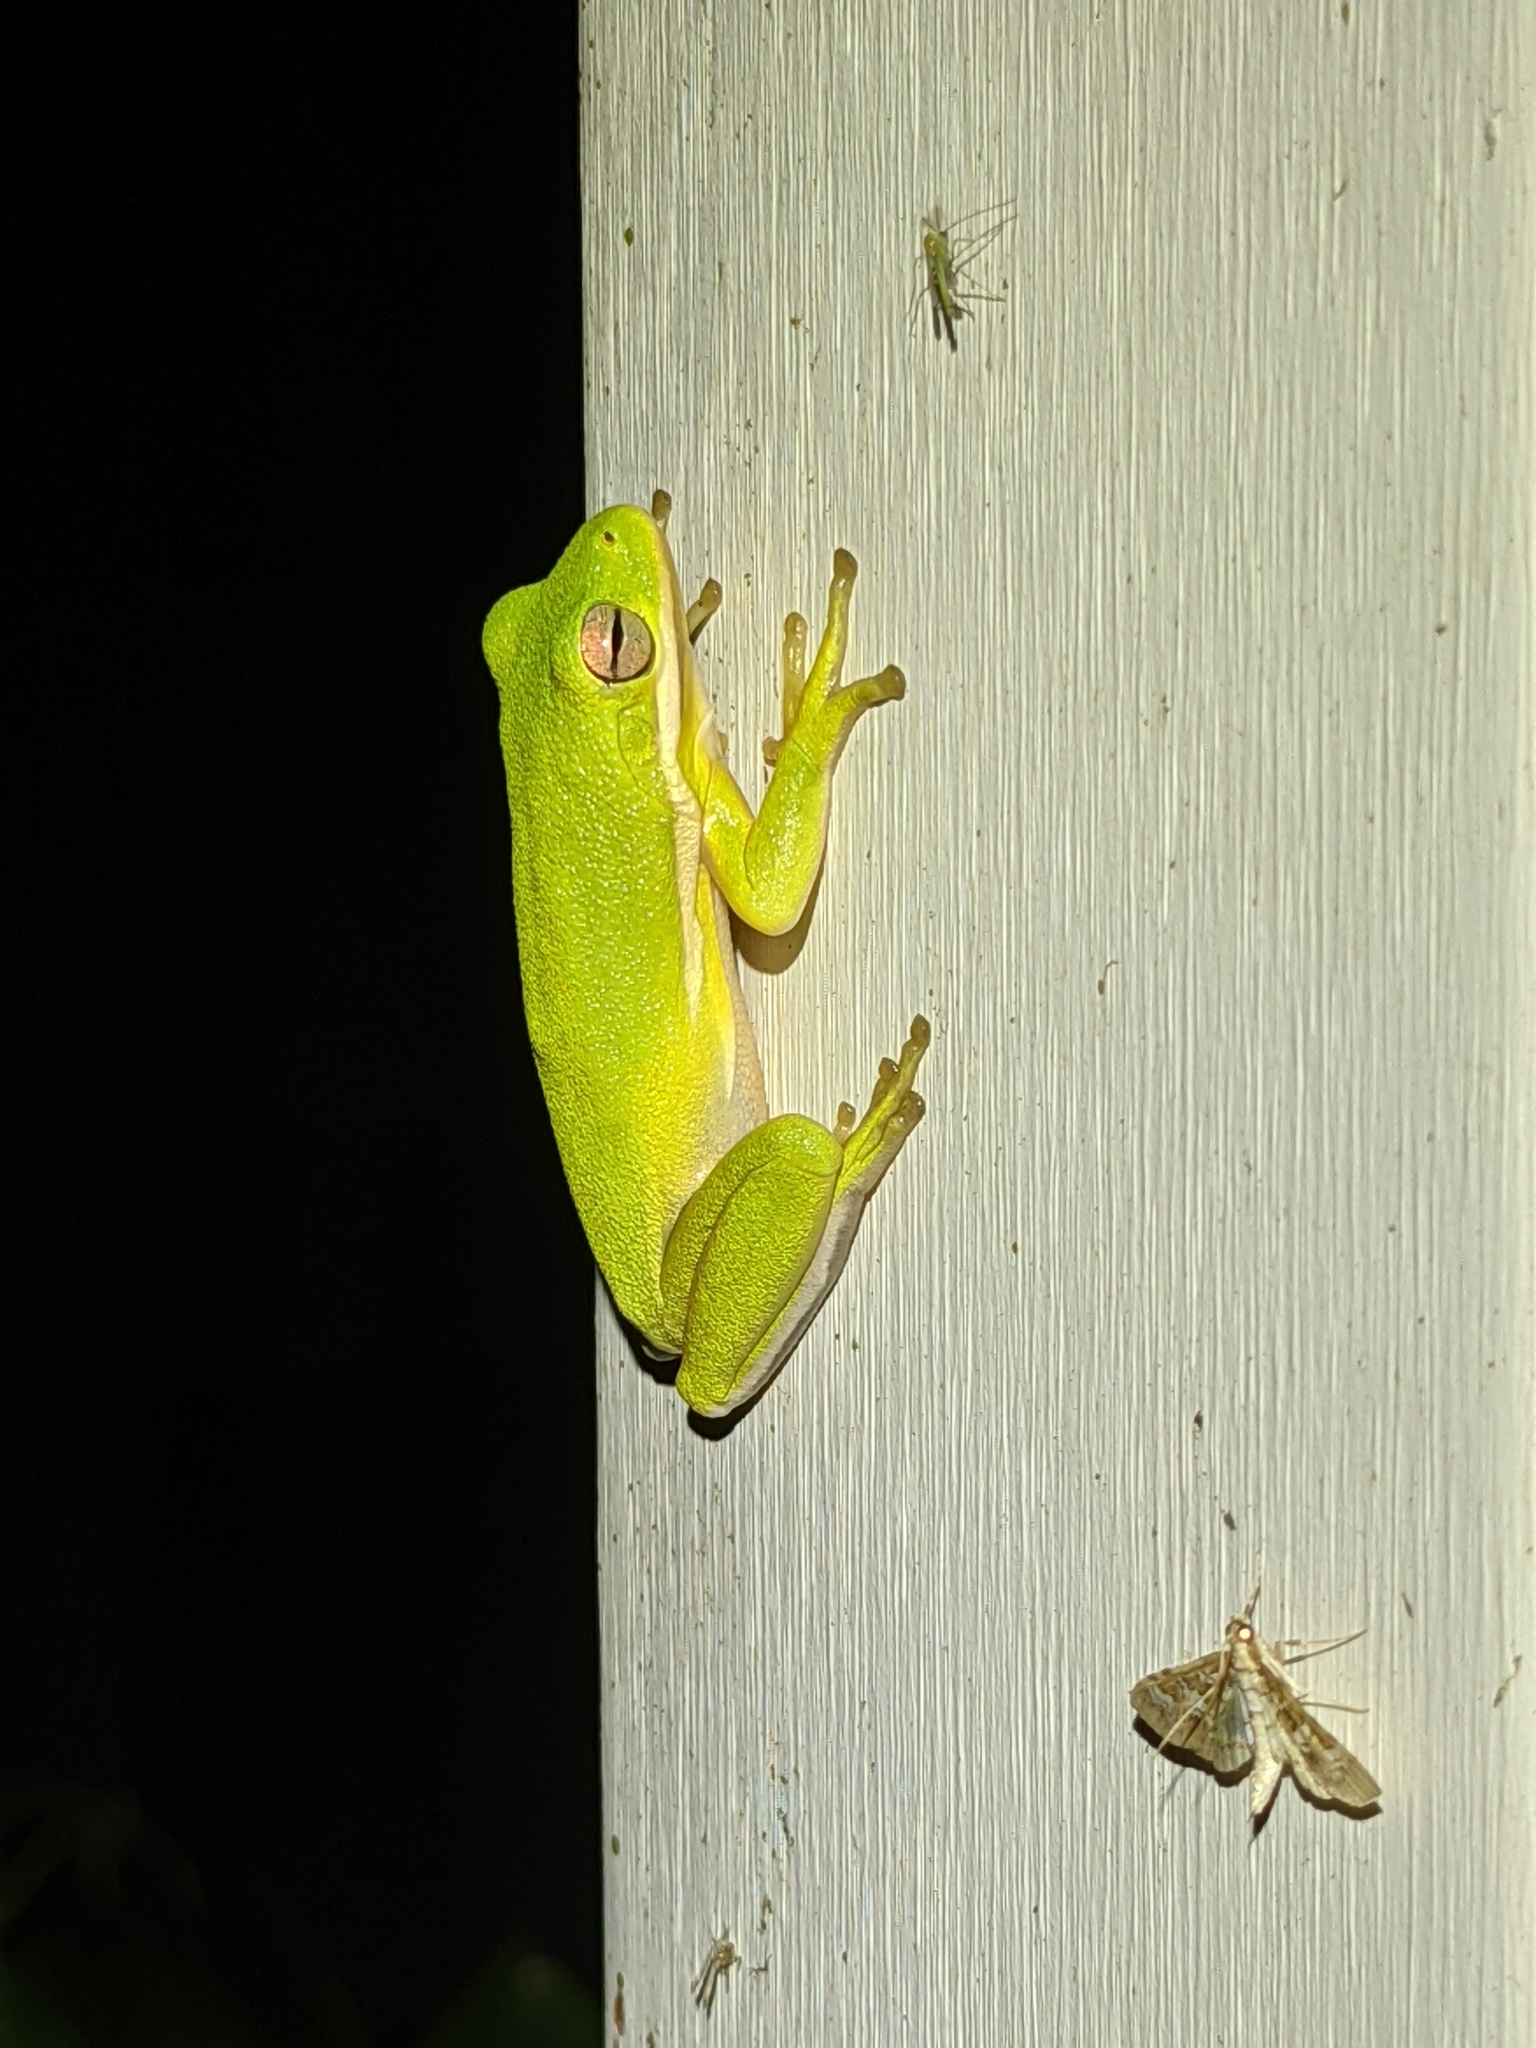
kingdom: Animalia
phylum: Chordata
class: Amphibia
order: Anura
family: Hylidae
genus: Dryophytes
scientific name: Dryophytes cinereus
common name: Green treefrog
